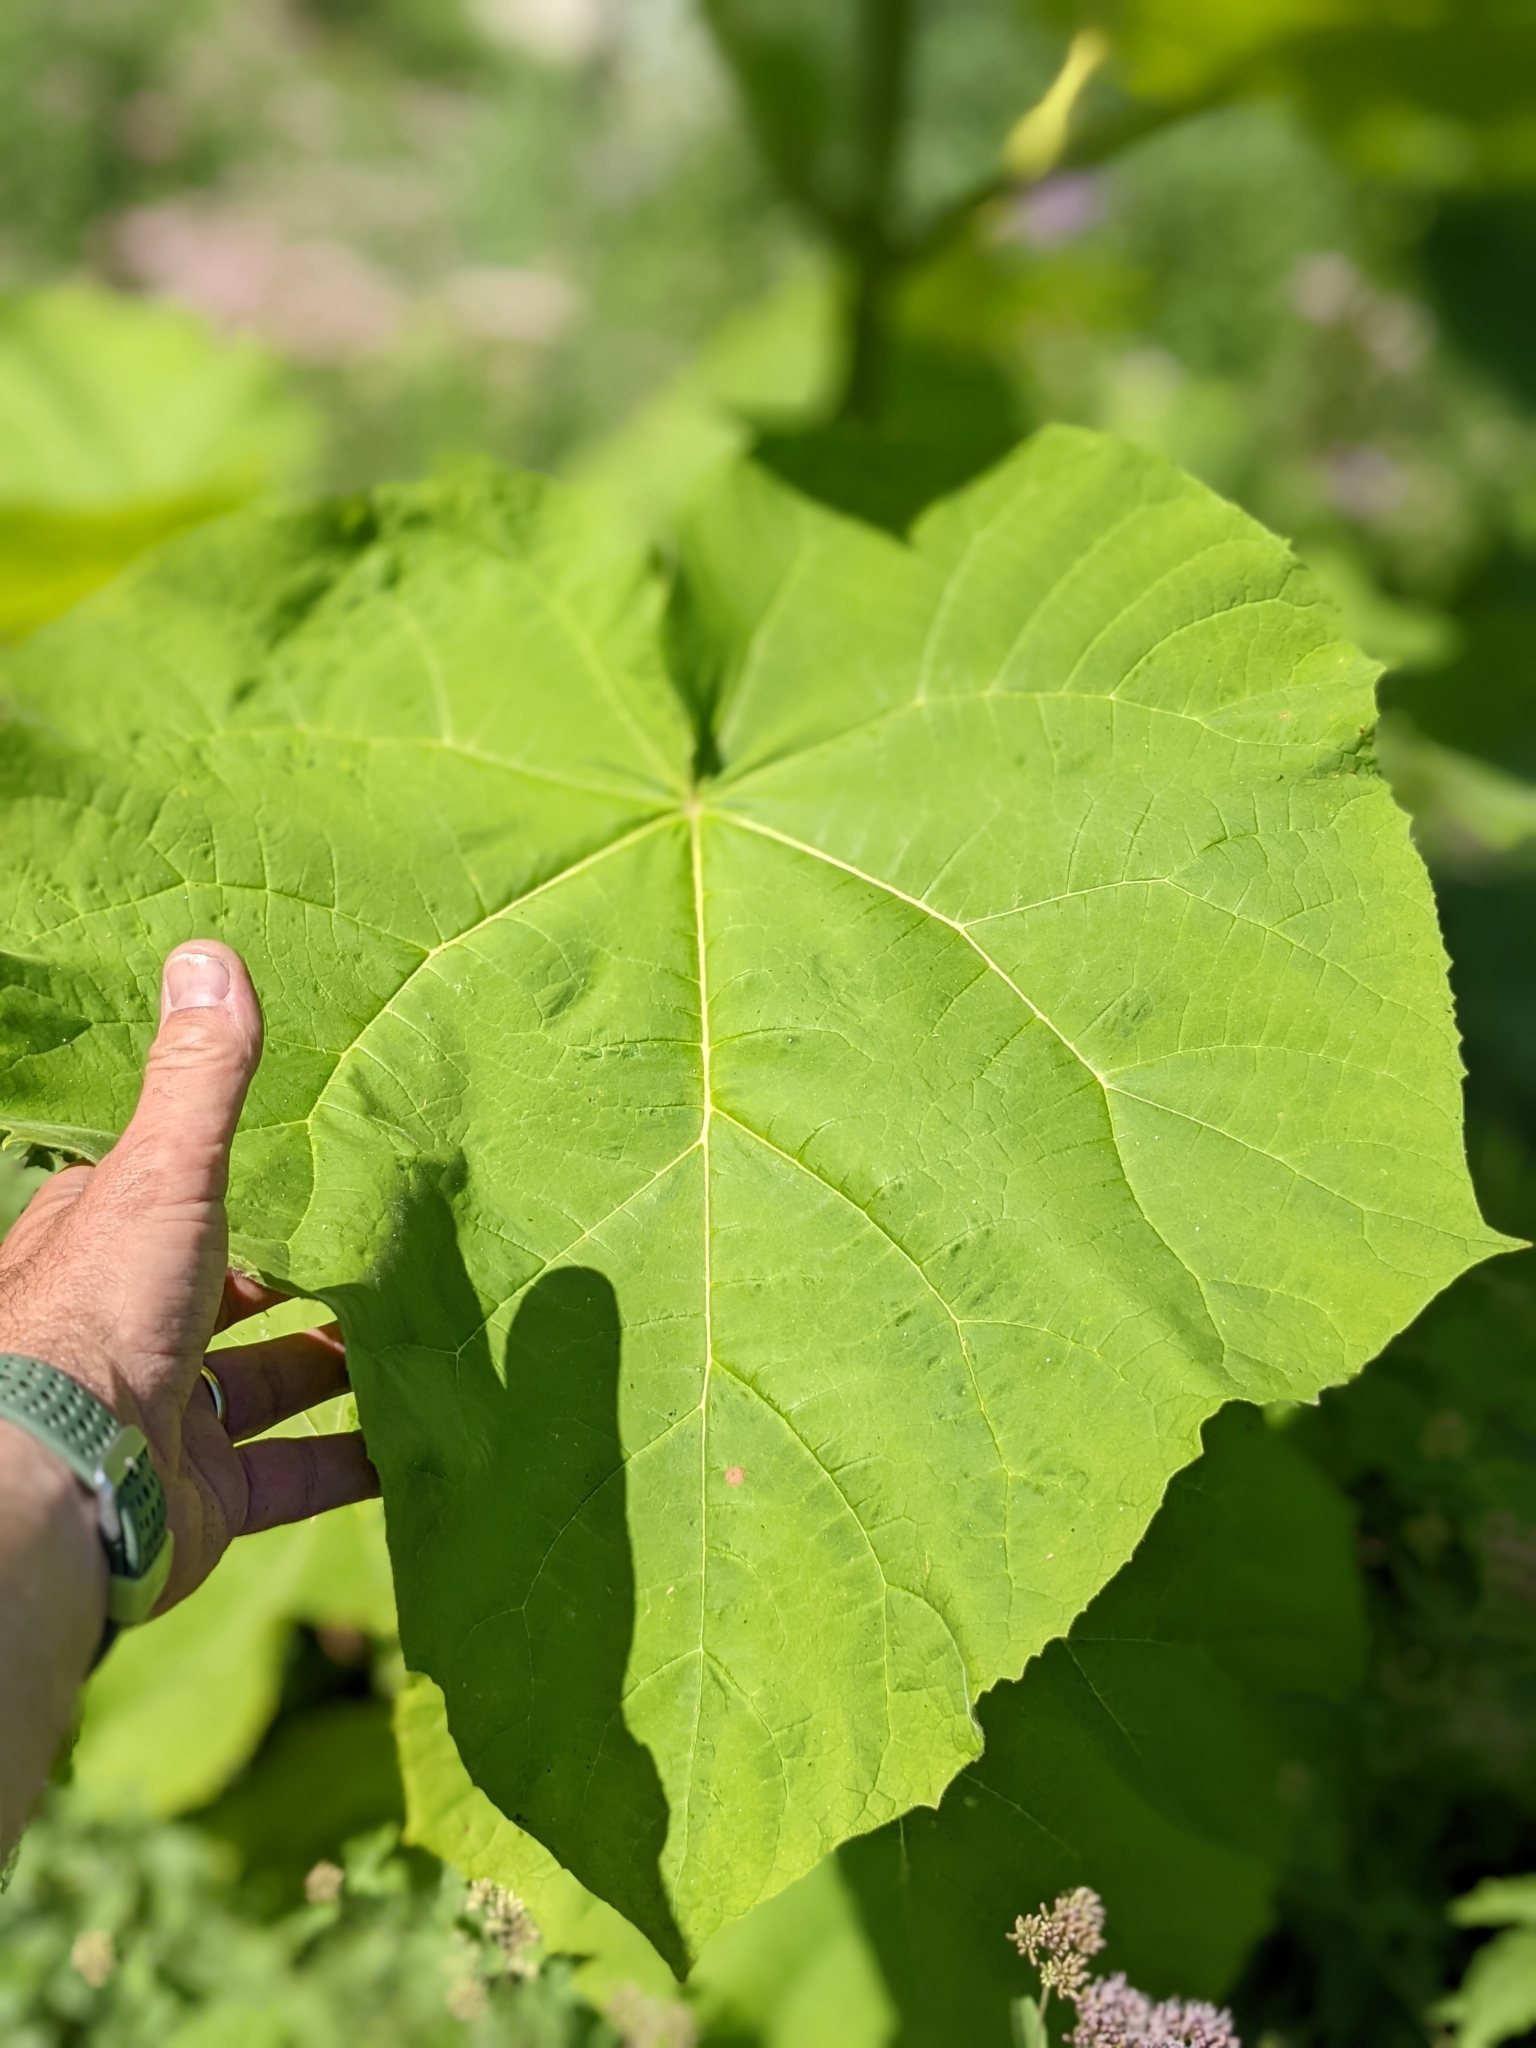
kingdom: Plantae
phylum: Tracheophyta
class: Magnoliopsida
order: Lamiales
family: Paulowniaceae
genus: Paulownia
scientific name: Paulownia tomentosa
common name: Foxglove-tree
